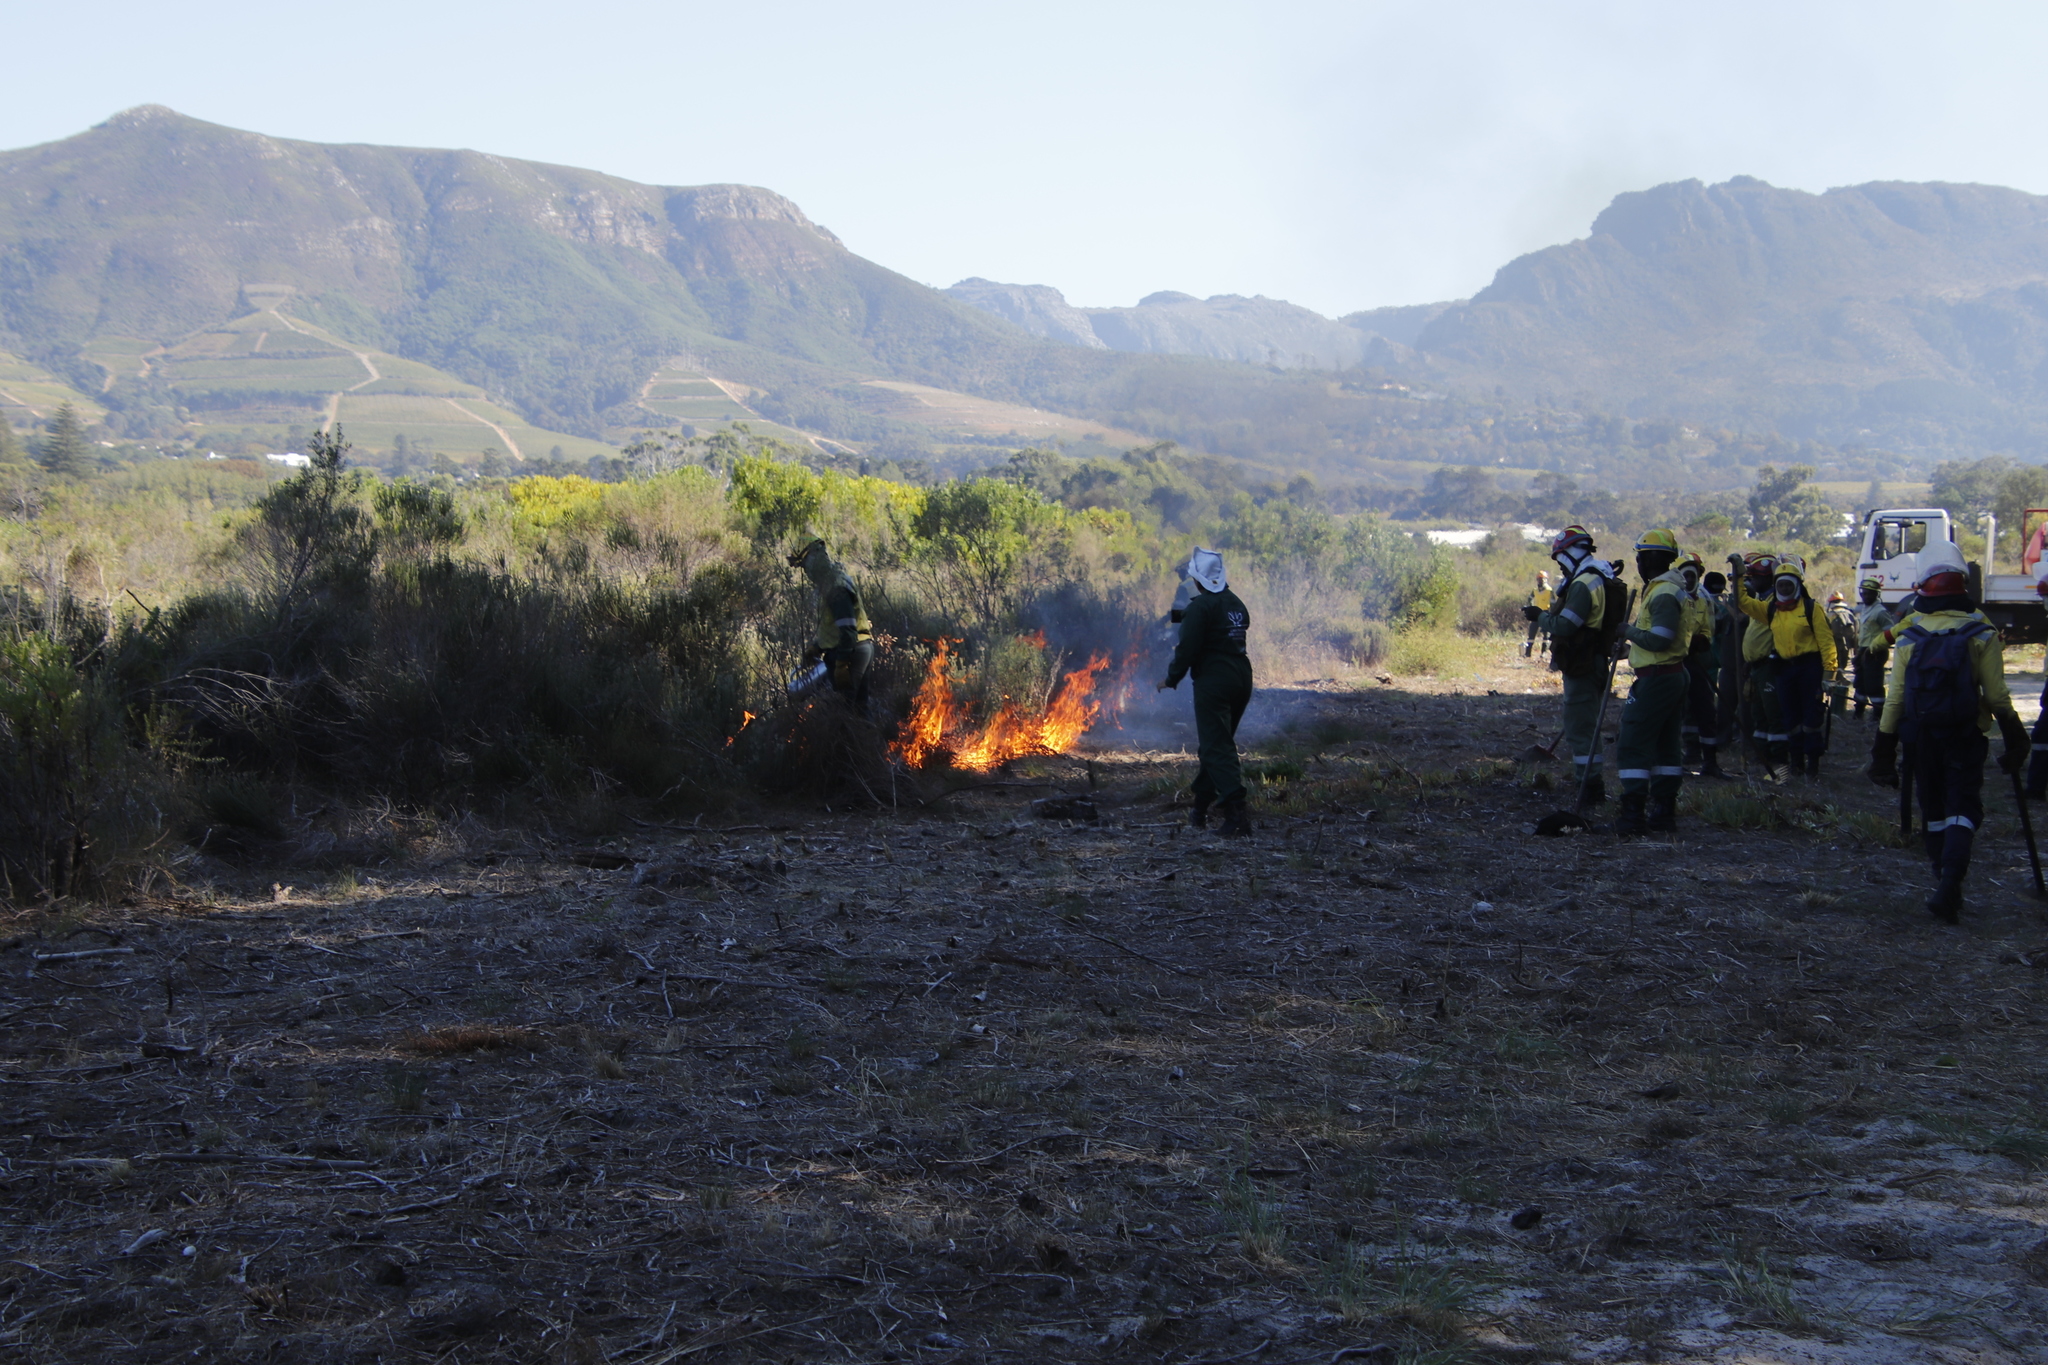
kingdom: Plantae
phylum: Tracheophyta
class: Magnoliopsida
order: Malvales
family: Thymelaeaceae
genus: Passerina
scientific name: Passerina corymbosa
